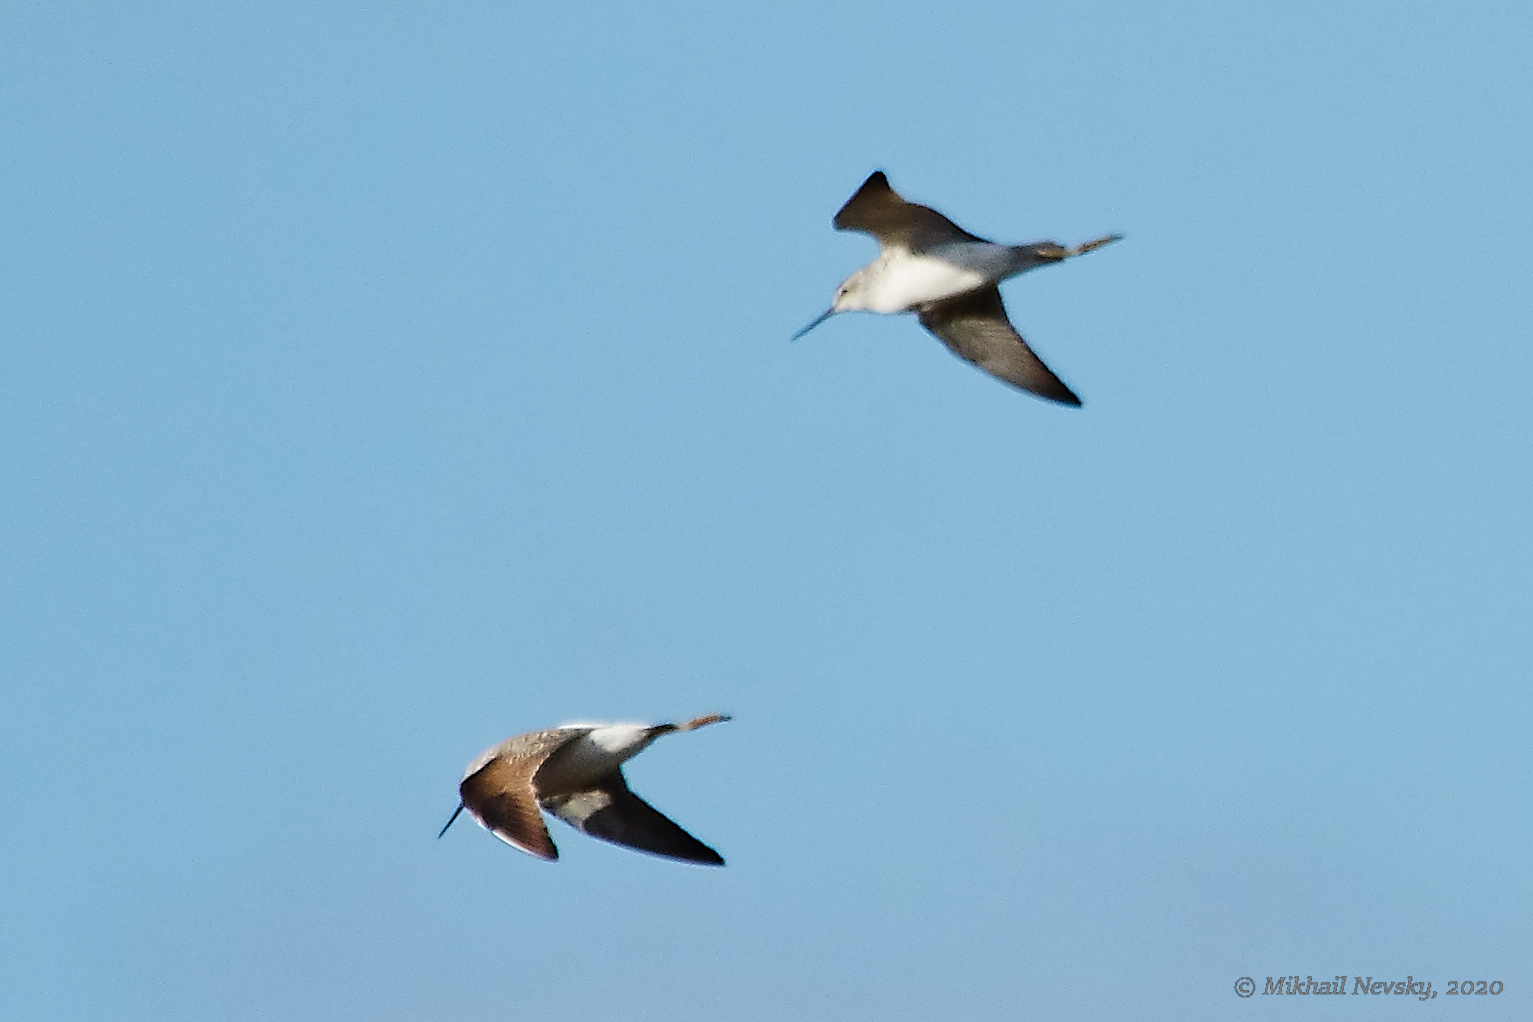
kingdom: Animalia
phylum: Chordata
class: Aves
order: Charadriiformes
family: Scolopacidae
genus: Tringa
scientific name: Tringa stagnatilis
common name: Marsh sandpiper
